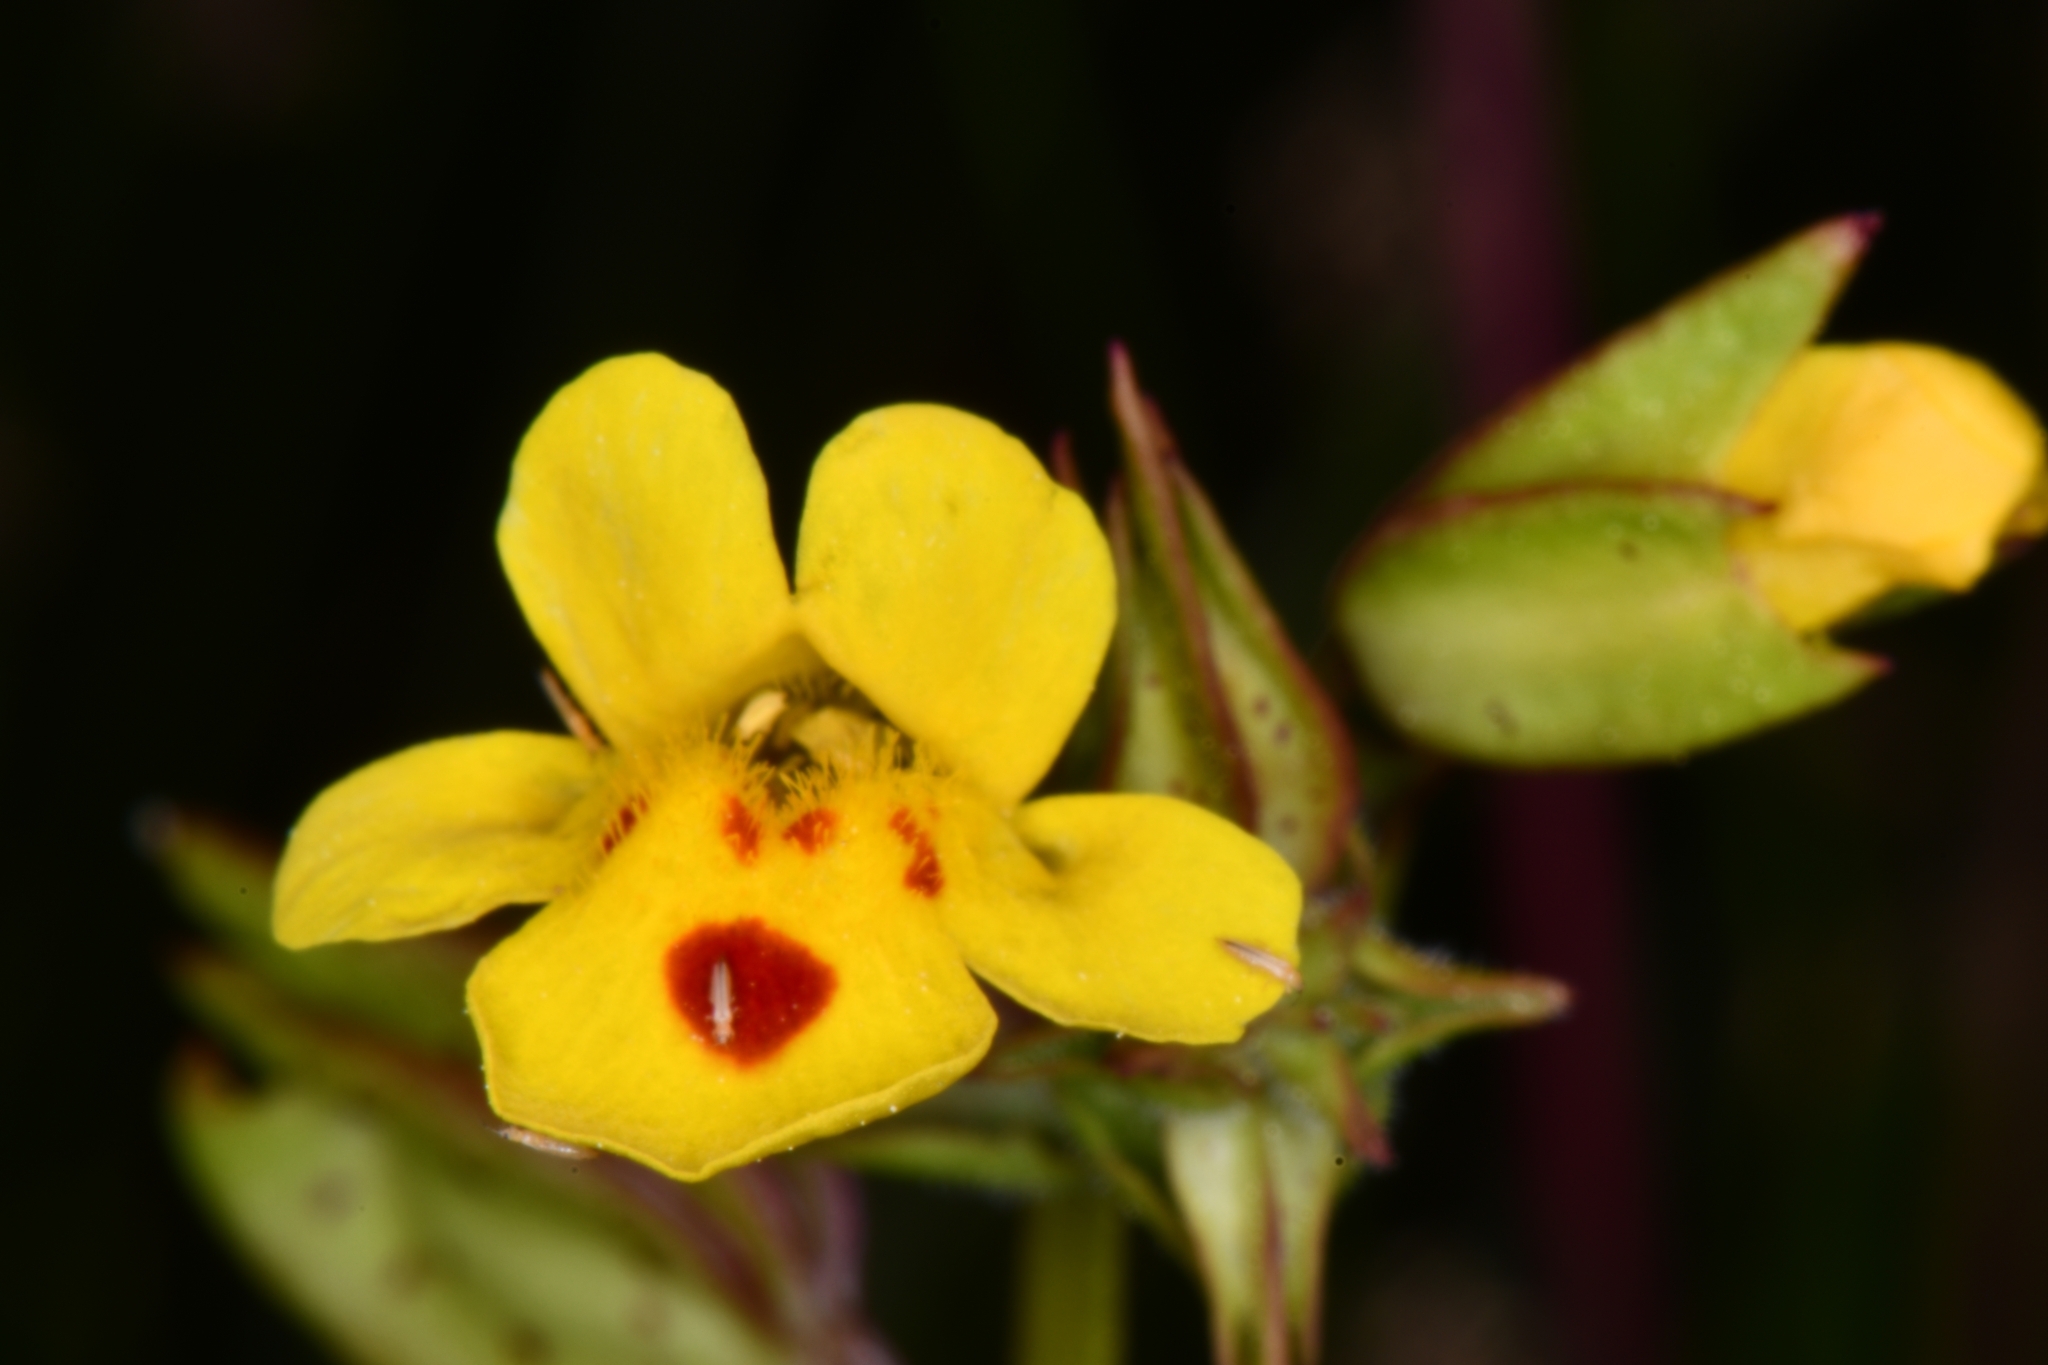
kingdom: Plantae
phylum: Tracheophyta
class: Magnoliopsida
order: Lamiales
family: Phrymaceae
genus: Erythranthe
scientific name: Erythranthe nasuta
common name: Sooke monkeyflower
